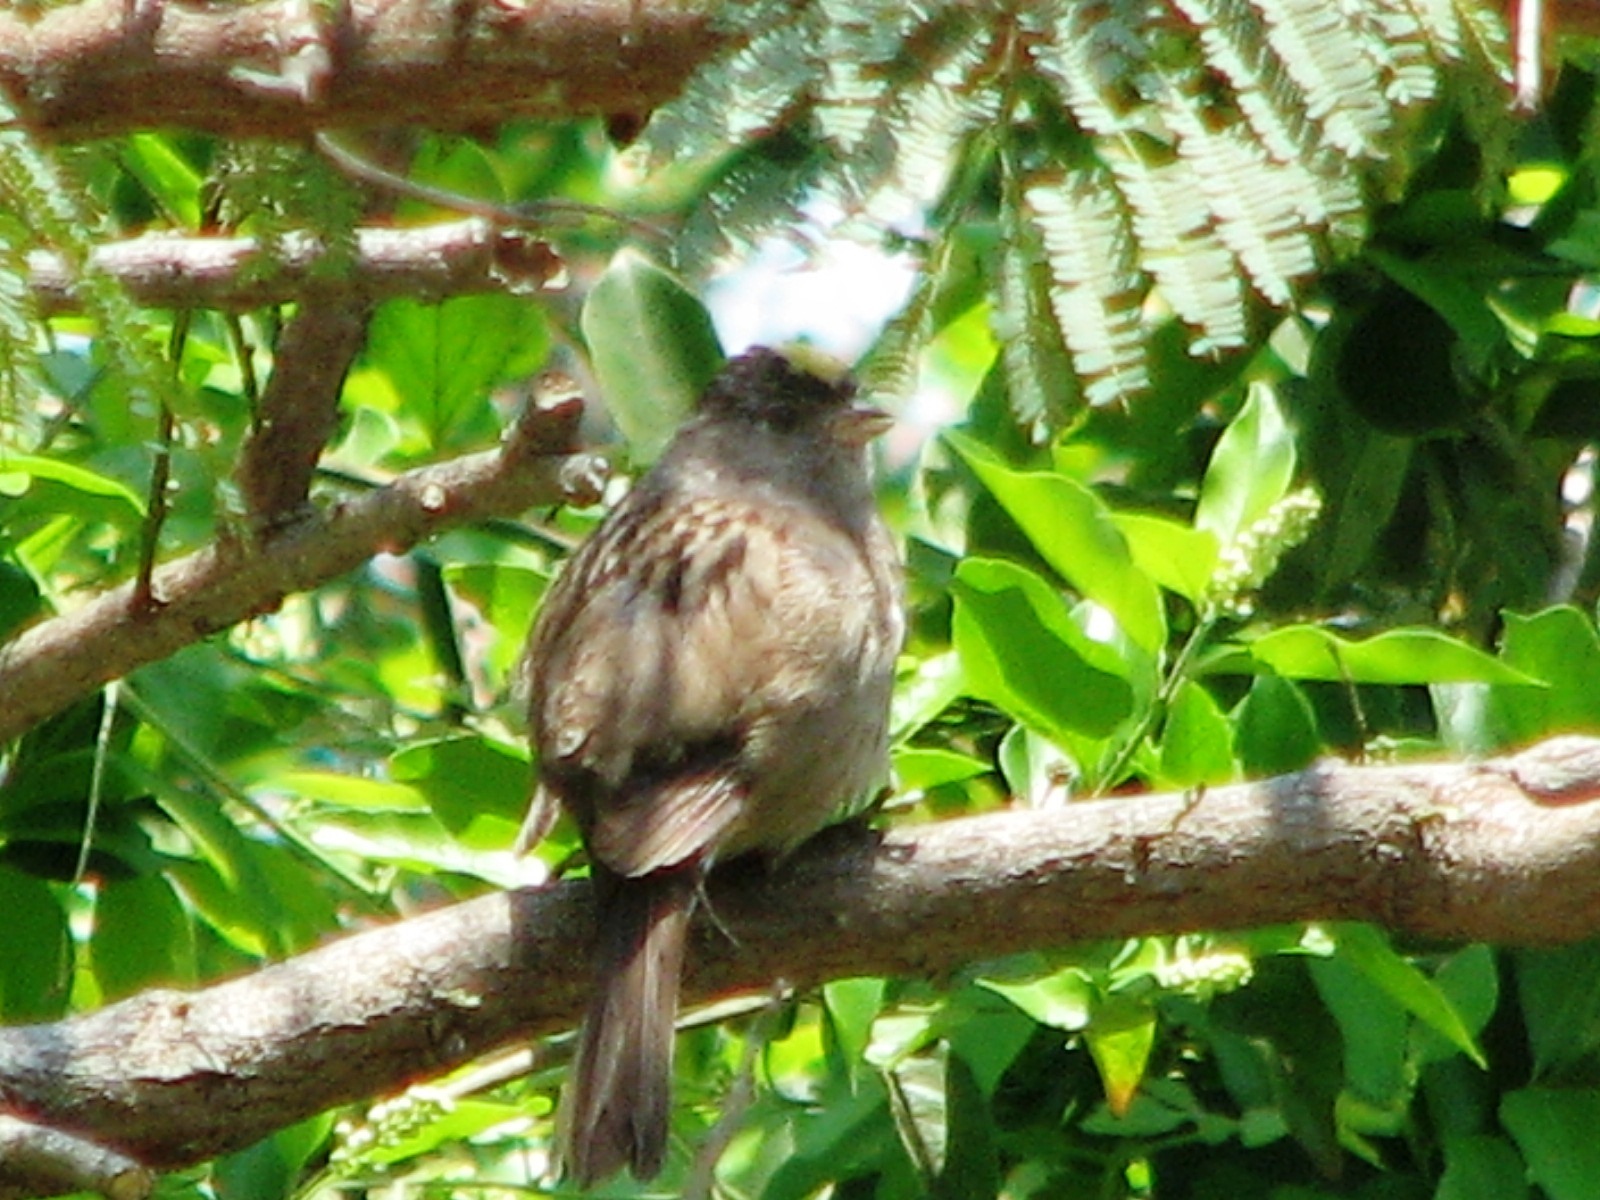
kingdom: Animalia
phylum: Chordata
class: Aves
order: Passeriformes
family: Passerellidae
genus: Zonotrichia
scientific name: Zonotrichia atricapilla
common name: Golden-crowned sparrow
